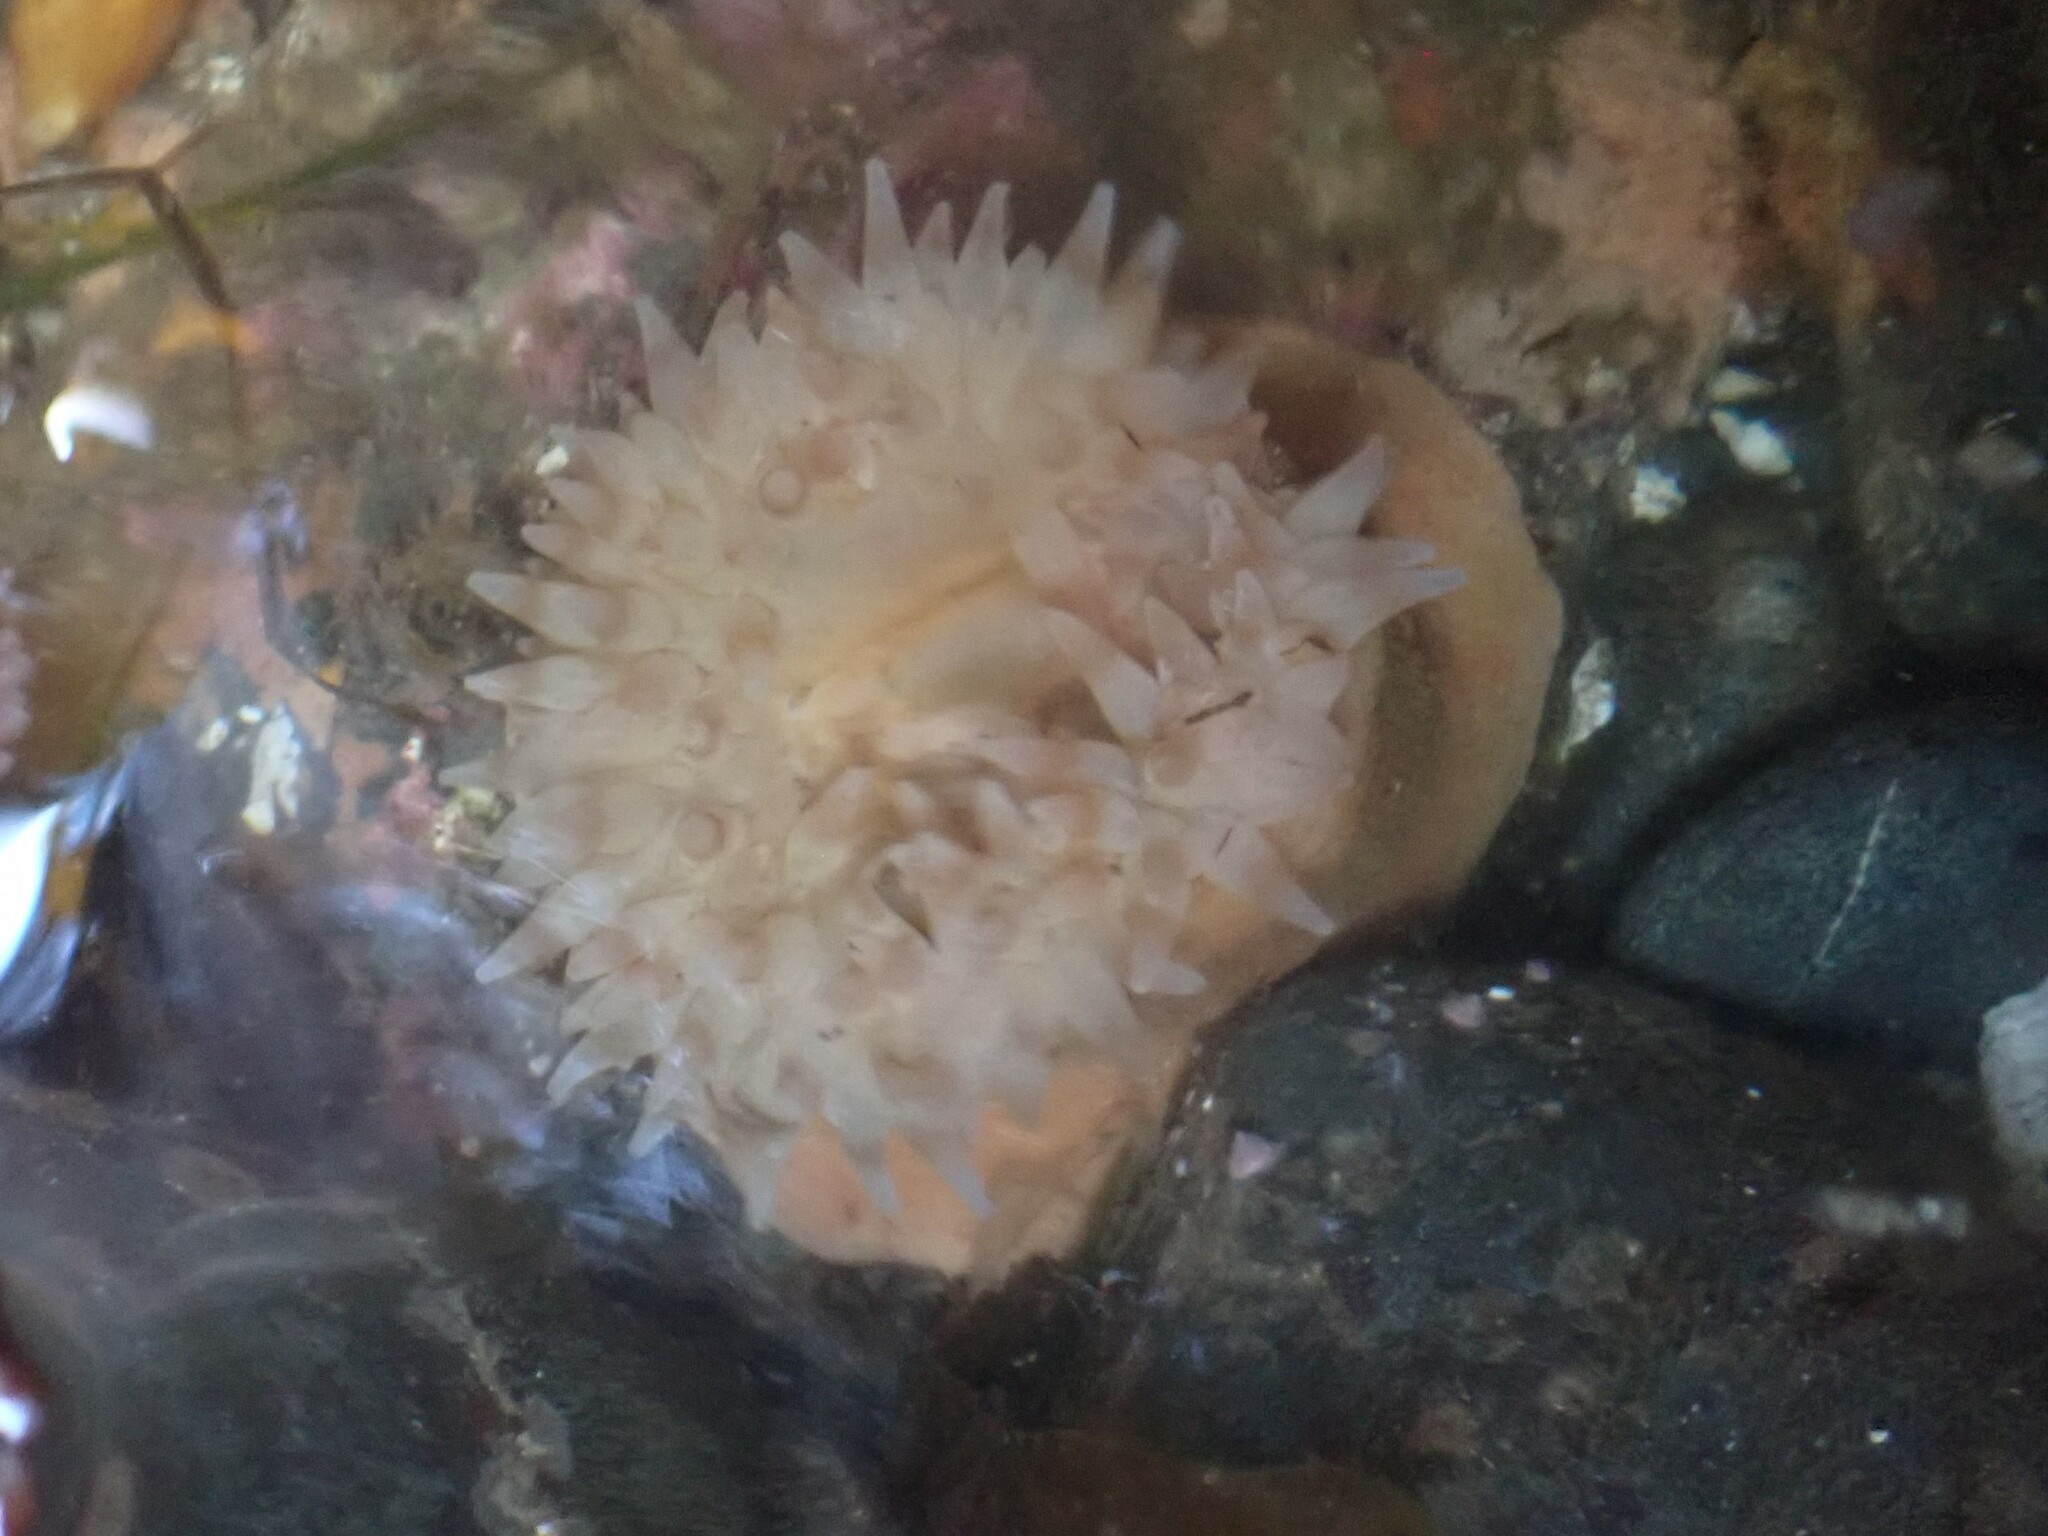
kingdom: Animalia
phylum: Cnidaria
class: Anthozoa
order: Actiniaria
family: Actiniidae
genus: Urticina
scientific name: Urticina grebelnyi
